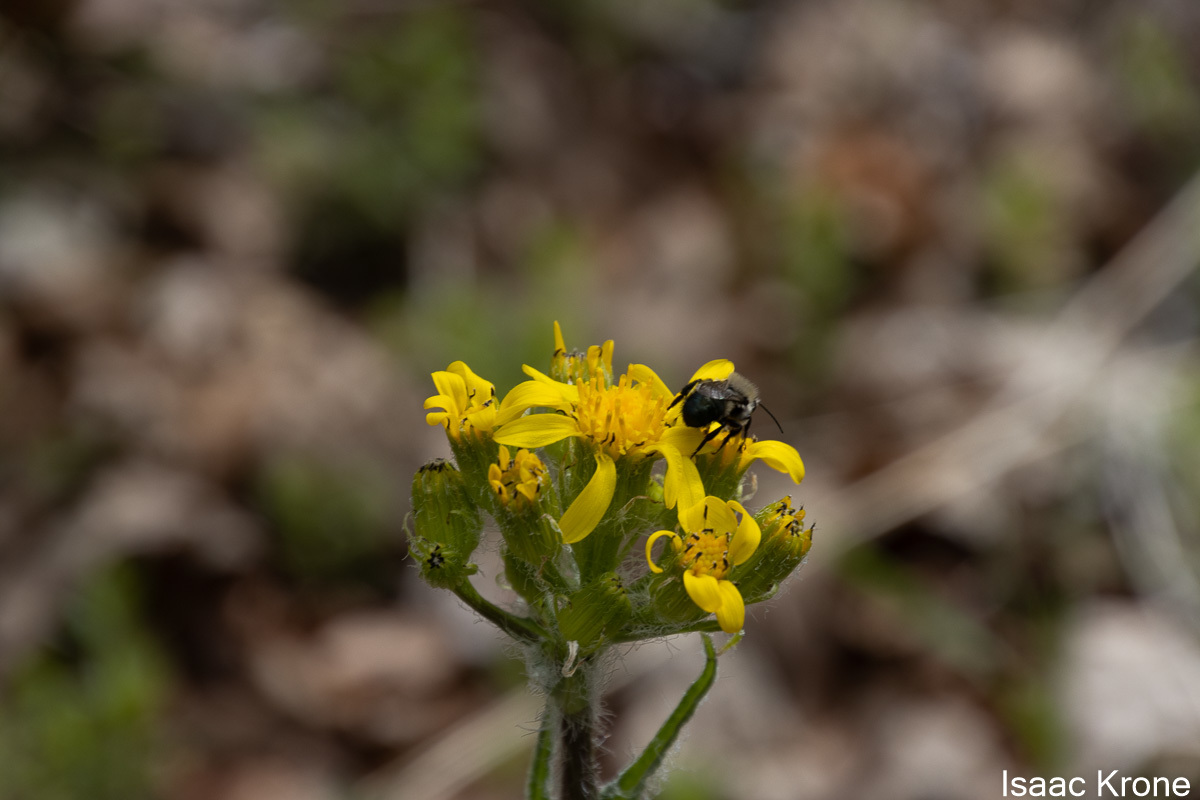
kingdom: Plantae
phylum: Tracheophyta
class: Magnoliopsida
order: Asterales
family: Asteraceae
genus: Senecio
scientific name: Senecio integerrimus
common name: Gaugeplant
